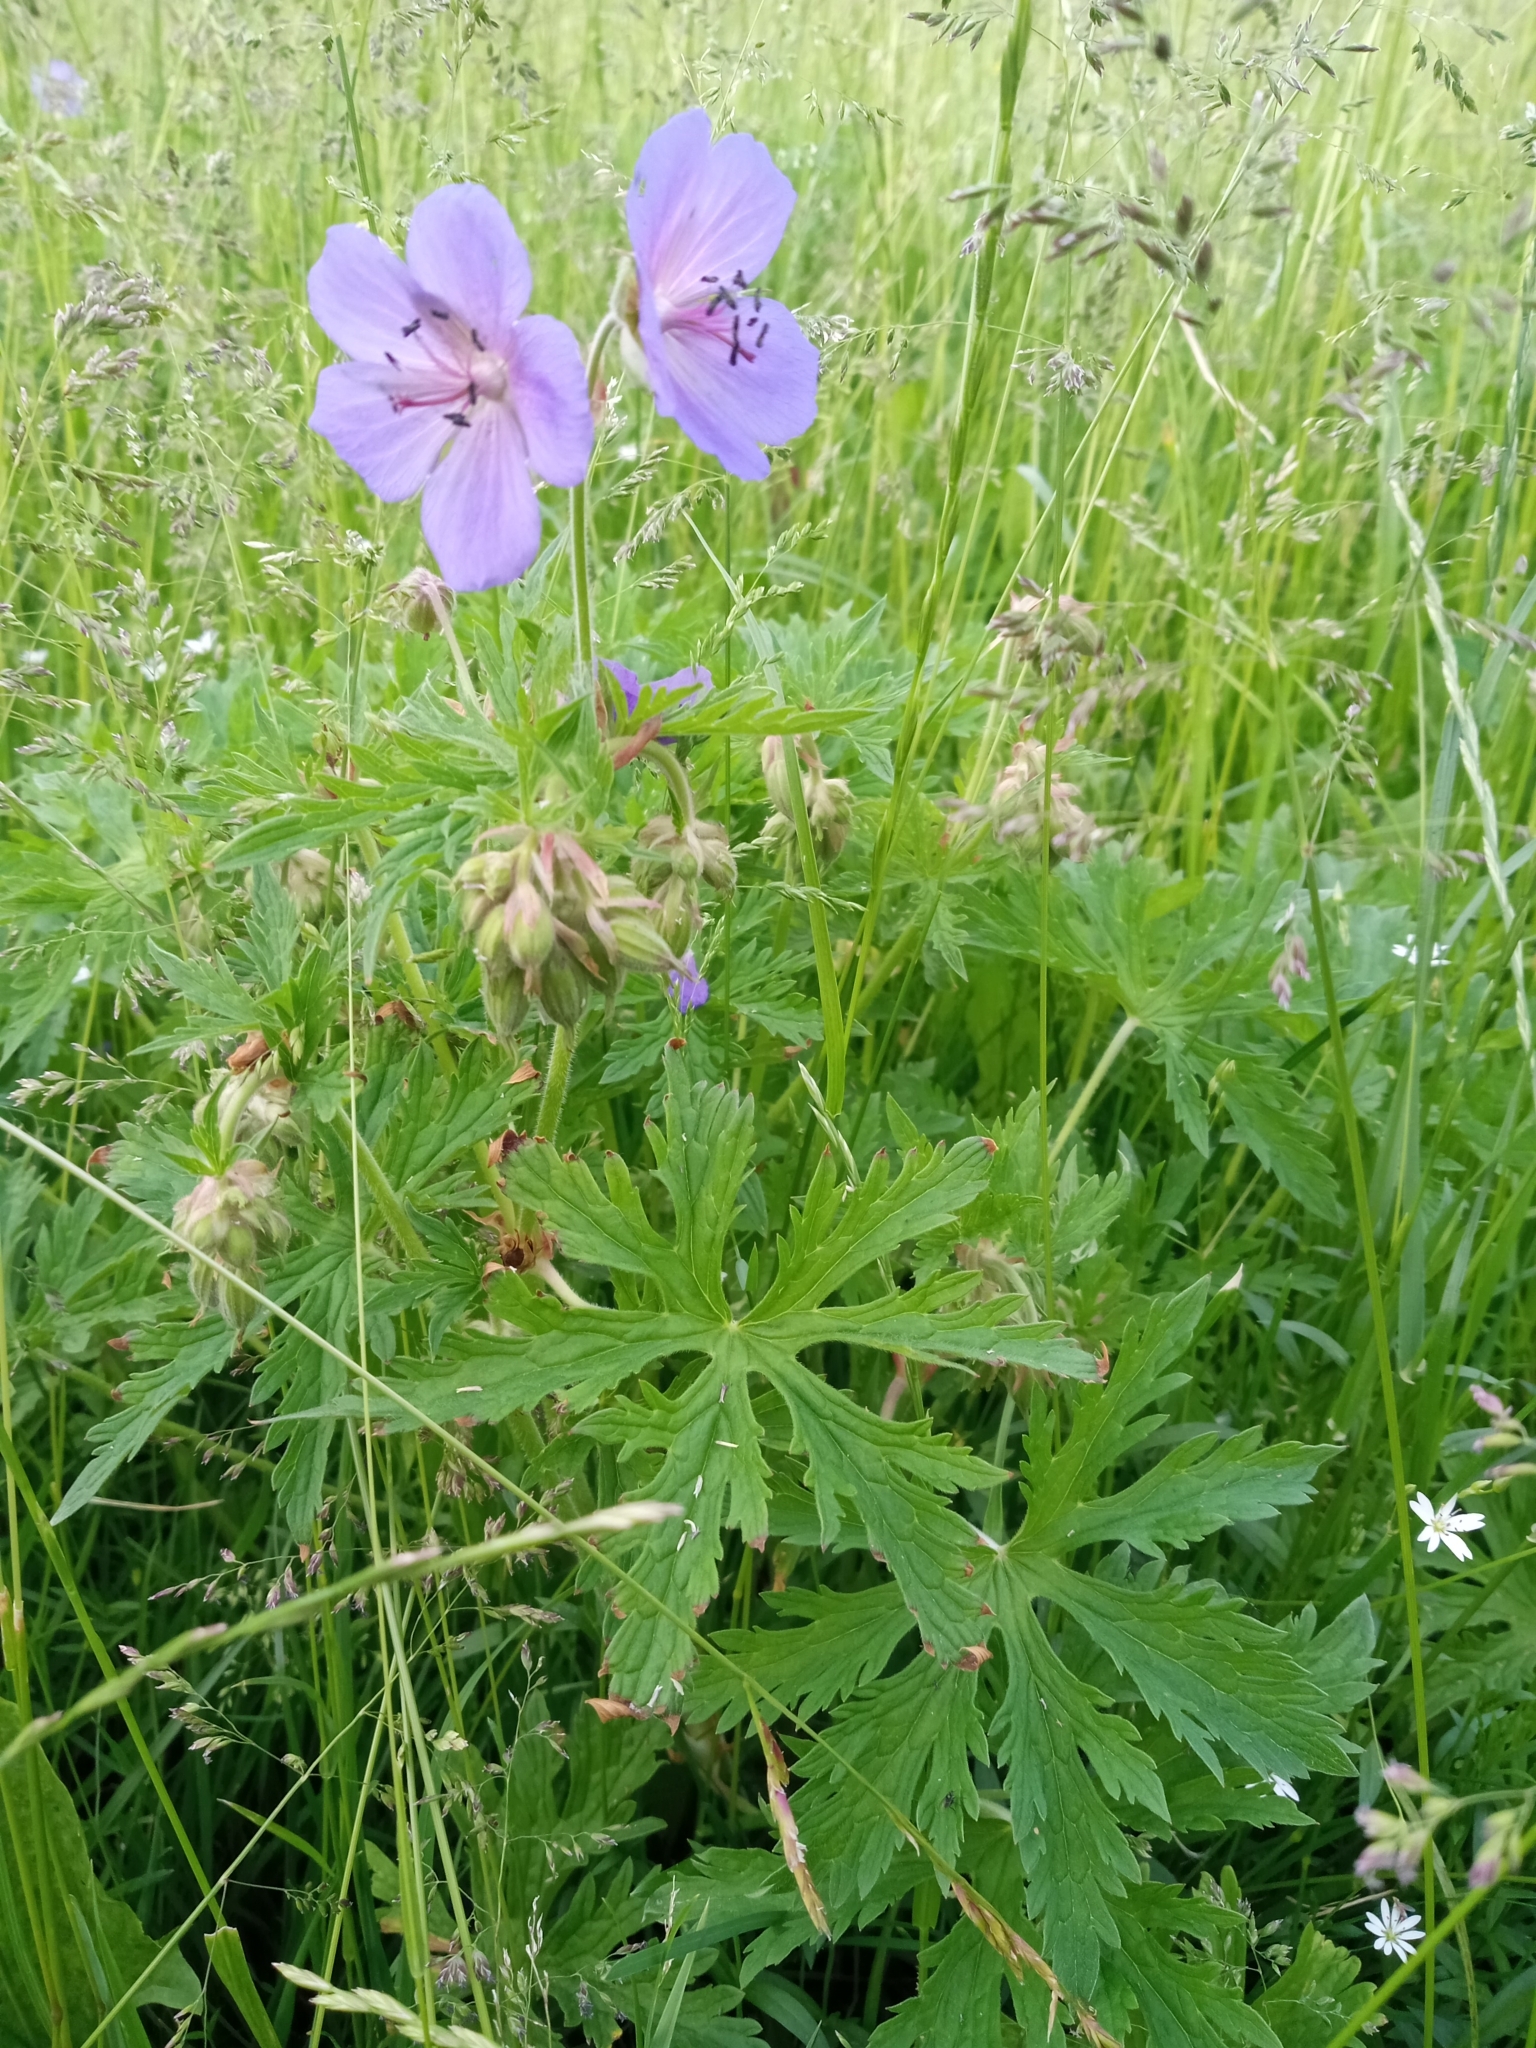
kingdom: Plantae
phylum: Tracheophyta
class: Magnoliopsida
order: Geraniales
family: Geraniaceae
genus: Geranium
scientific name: Geranium pratense
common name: Meadow crane's-bill
